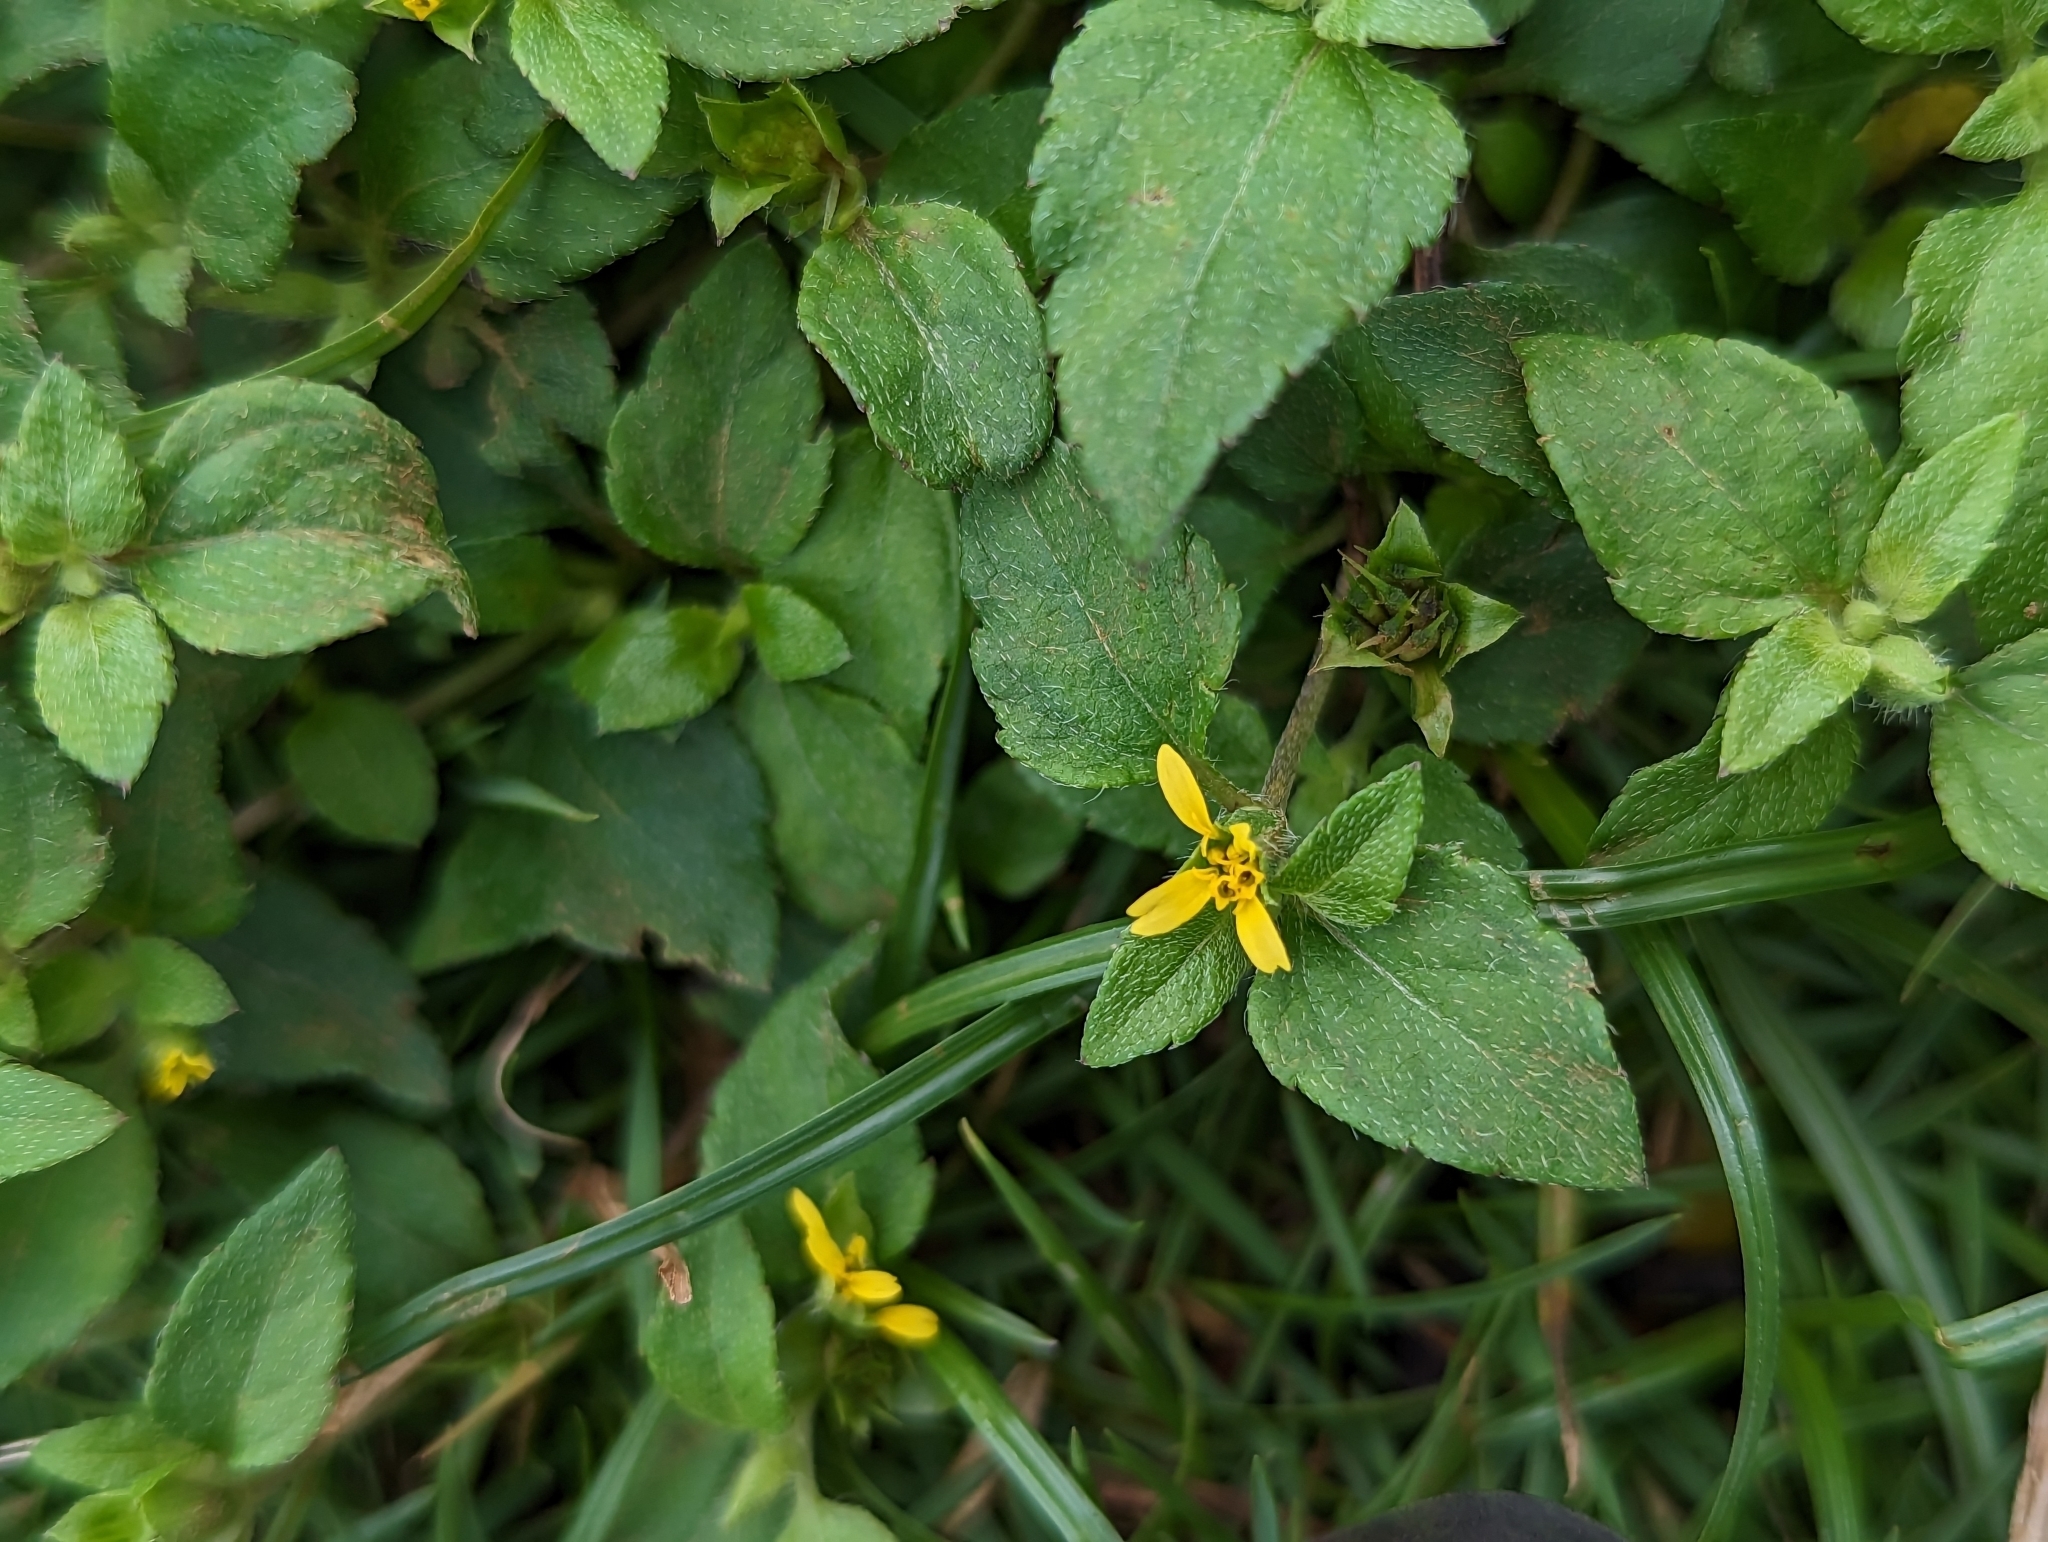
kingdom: Plantae
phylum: Tracheophyta
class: Magnoliopsida
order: Asterales
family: Asteraceae
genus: Calyptocarpus
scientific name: Calyptocarpus vialis
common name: Straggler daisy
